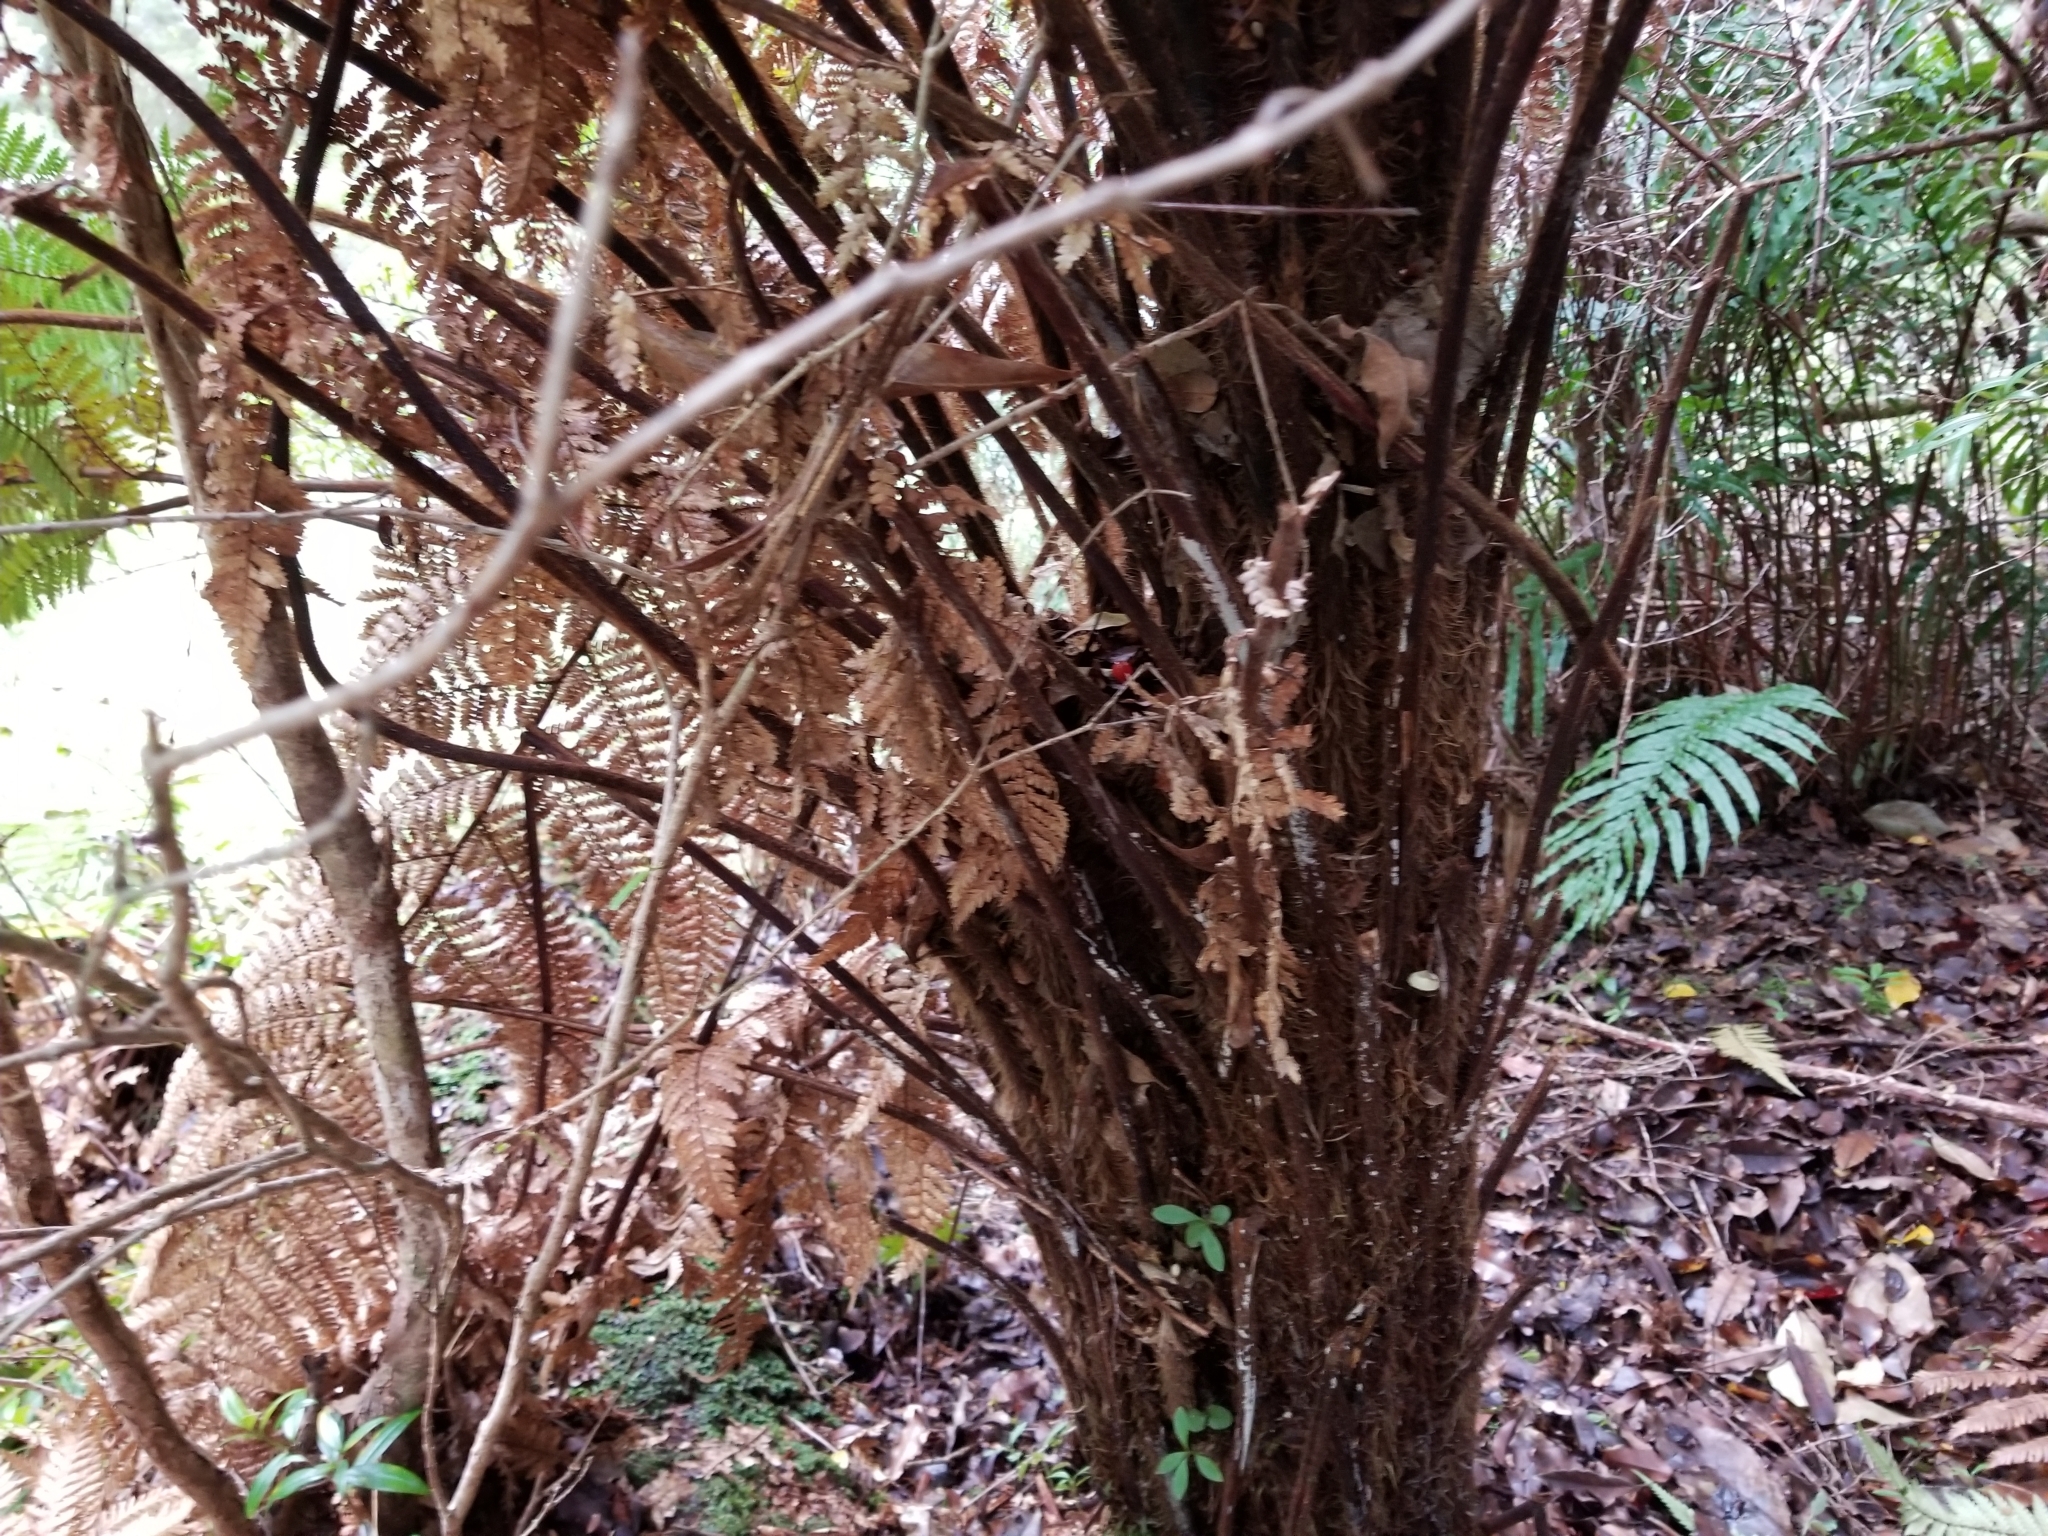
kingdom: Plantae
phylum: Tracheophyta
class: Polypodiopsida
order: Cyatheales
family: Dicksoniaceae
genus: Dicksonia
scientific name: Dicksonia squarrosa
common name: Hard treefern
